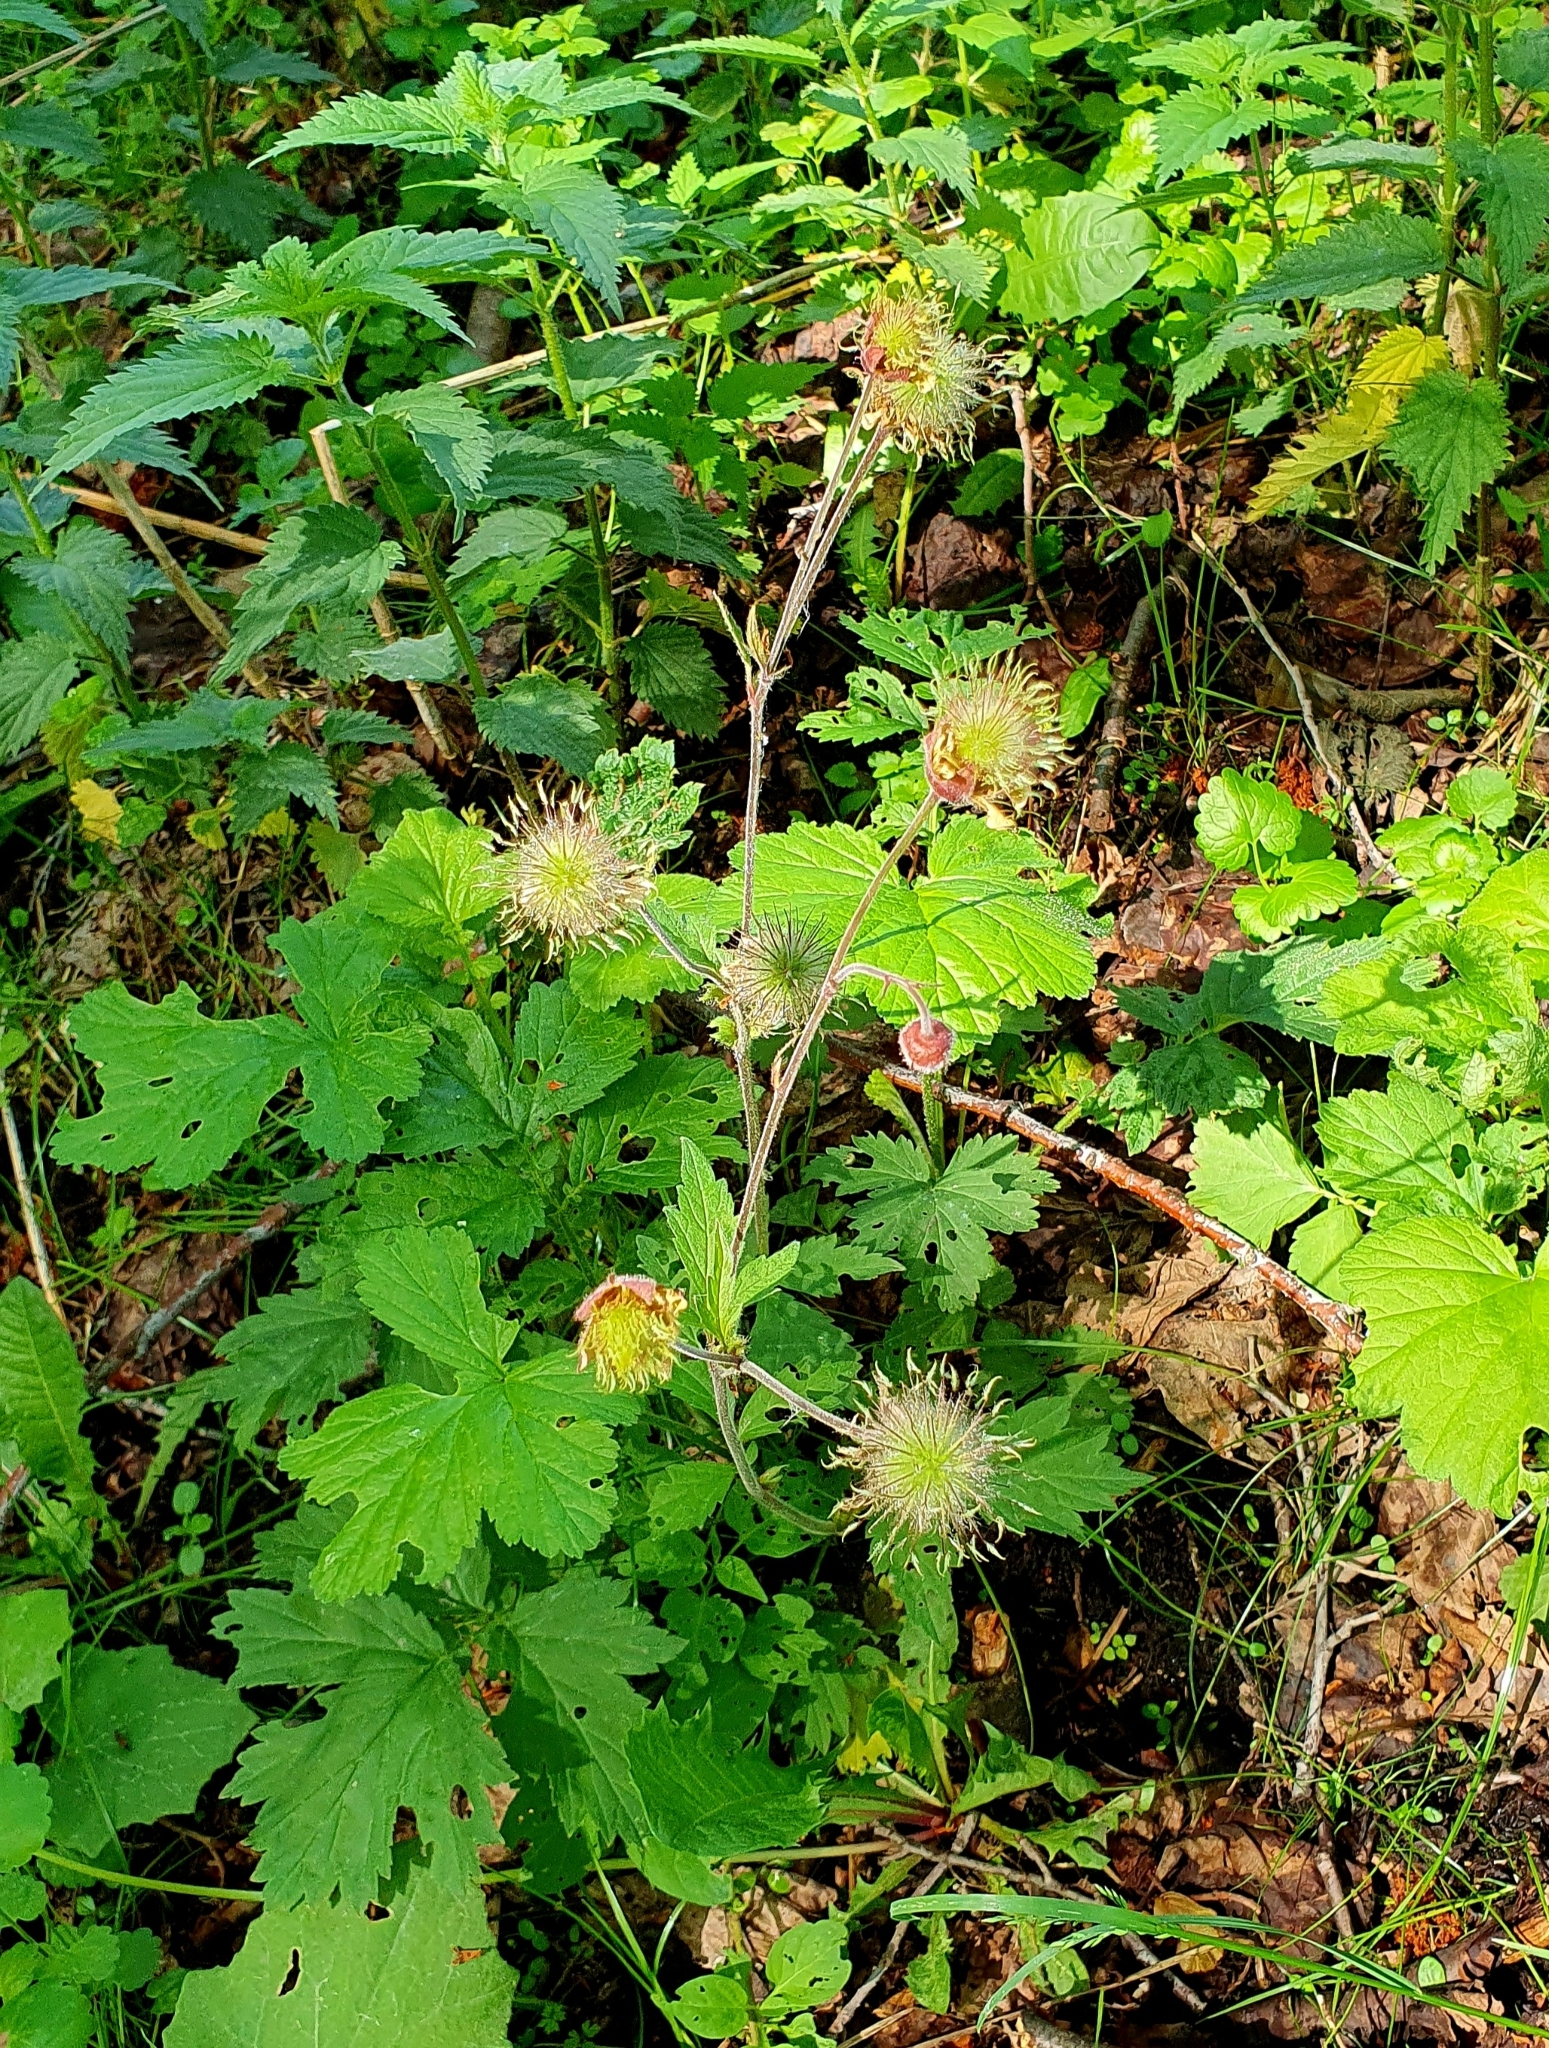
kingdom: Plantae
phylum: Tracheophyta
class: Magnoliopsida
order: Rosales
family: Rosaceae
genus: Geum
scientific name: Geum rivale
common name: Water avens
